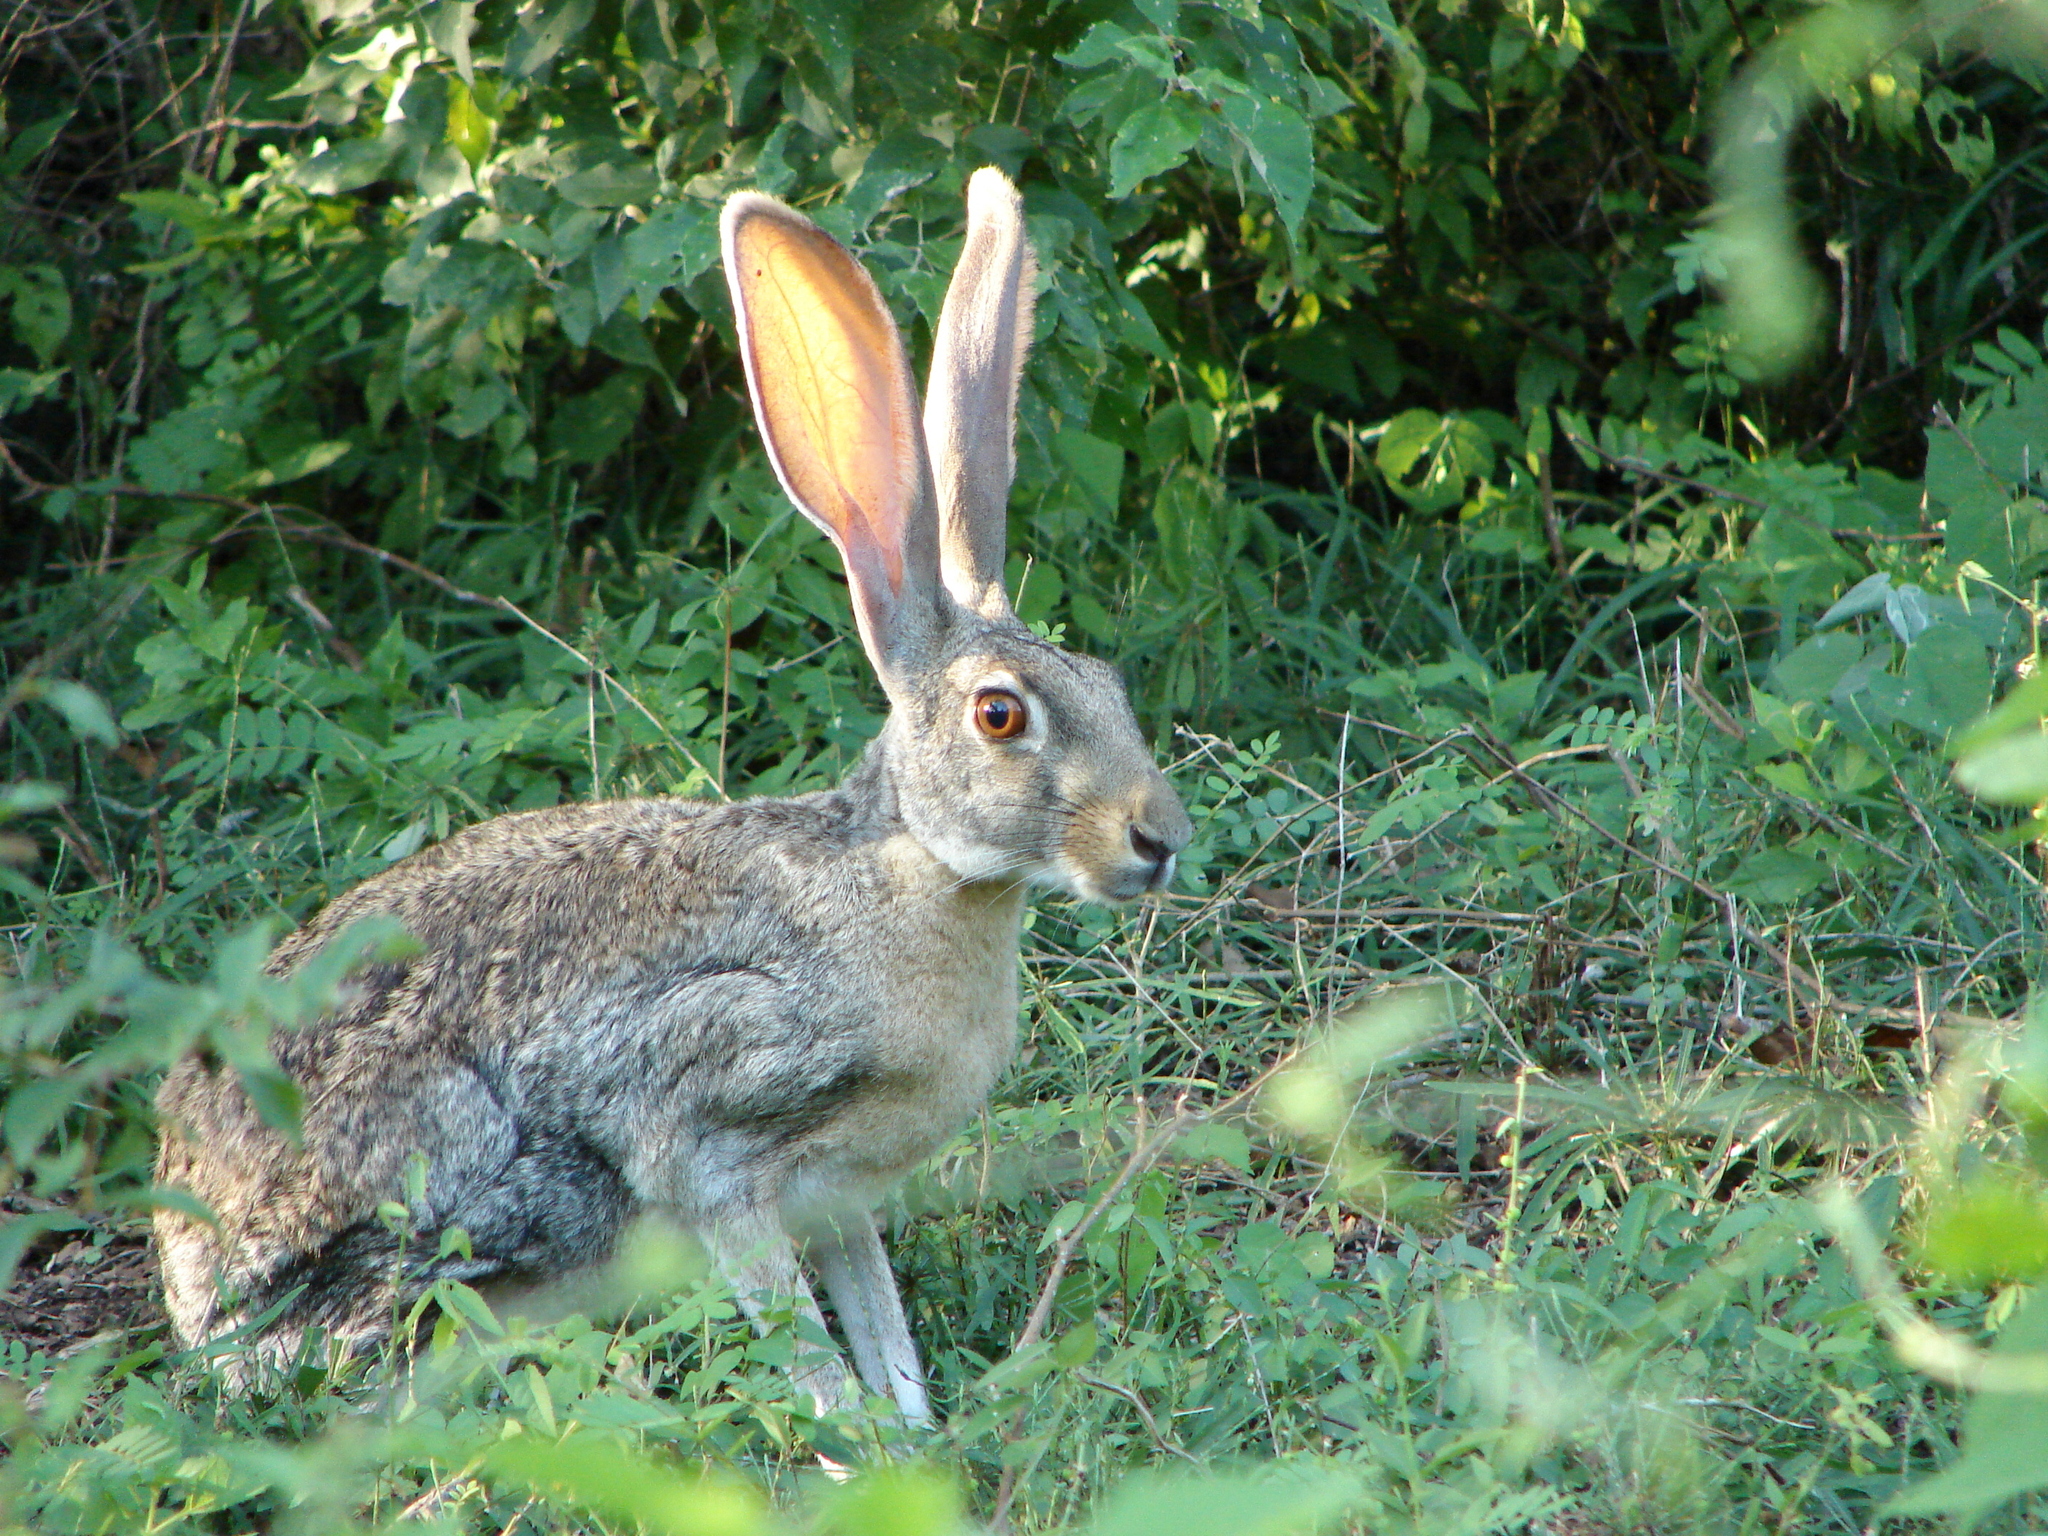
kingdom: Animalia
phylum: Chordata
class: Mammalia
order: Lagomorpha
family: Leporidae
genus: Lepus
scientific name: Lepus alleni
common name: Antelope jackrabbit
